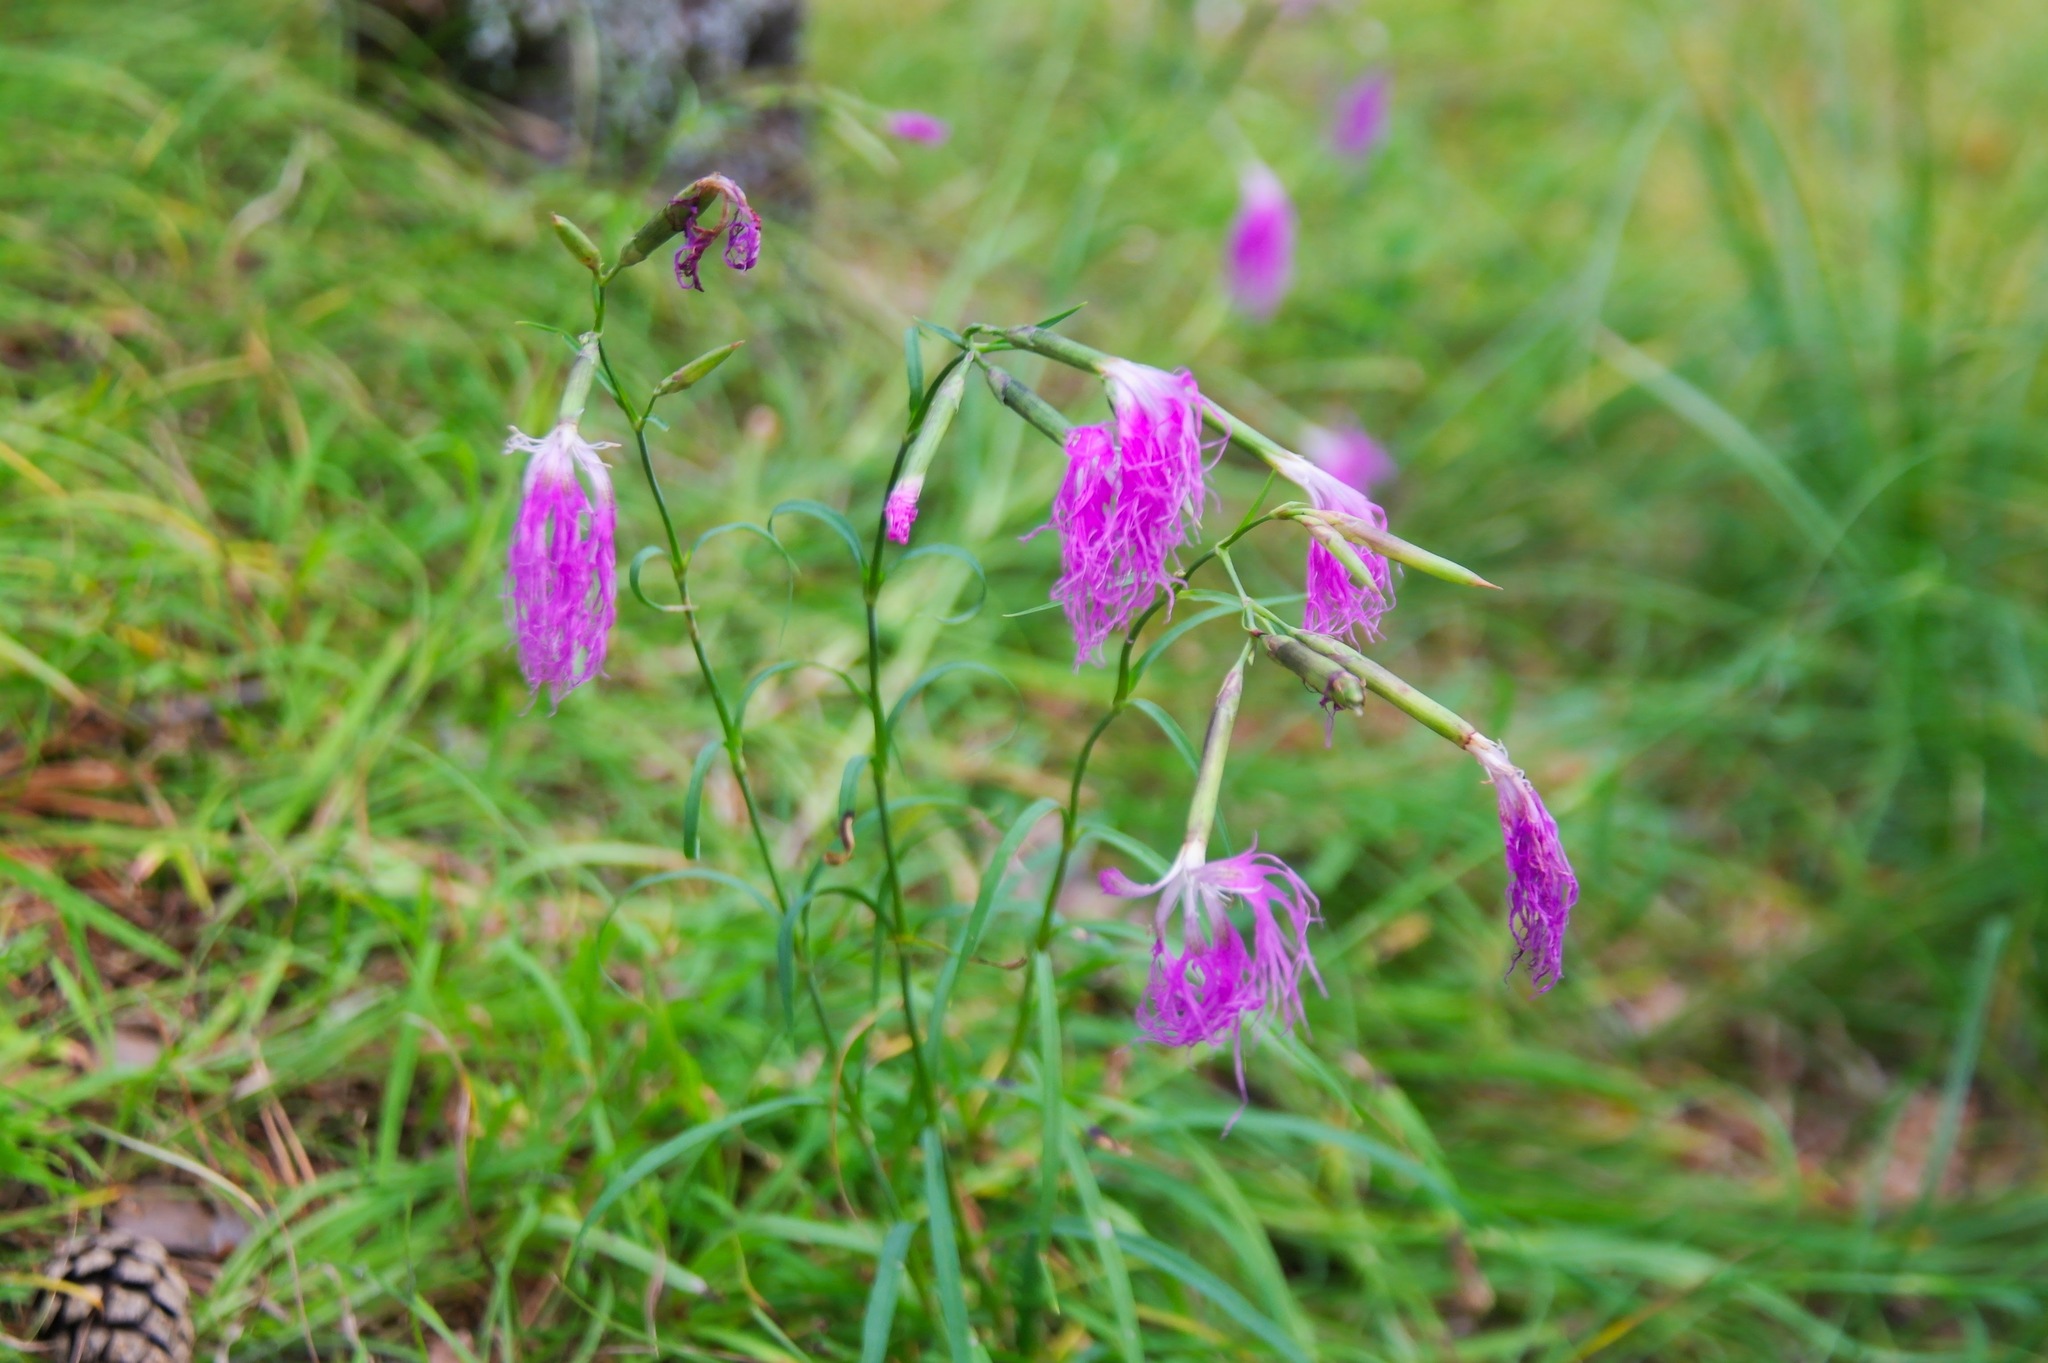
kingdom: Plantae
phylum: Tracheophyta
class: Magnoliopsida
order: Caryophyllales
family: Caryophyllaceae
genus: Dianthus
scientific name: Dianthus superbus
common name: Fringed pink
